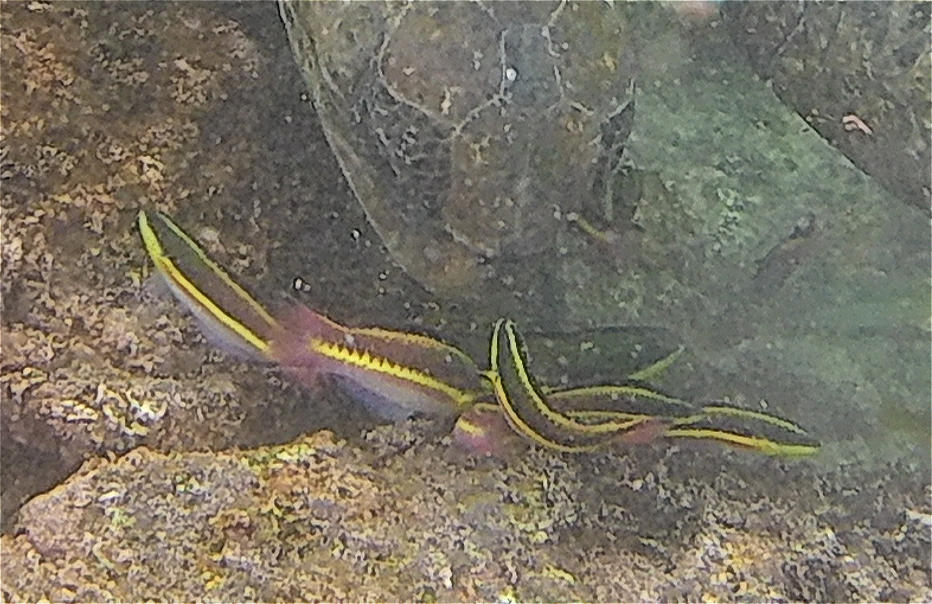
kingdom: Animalia
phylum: Chordata
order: Perciformes
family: Labridae
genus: Thalassoma
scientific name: Thalassoma lucasanum
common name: Cortez rainbow wrasse
